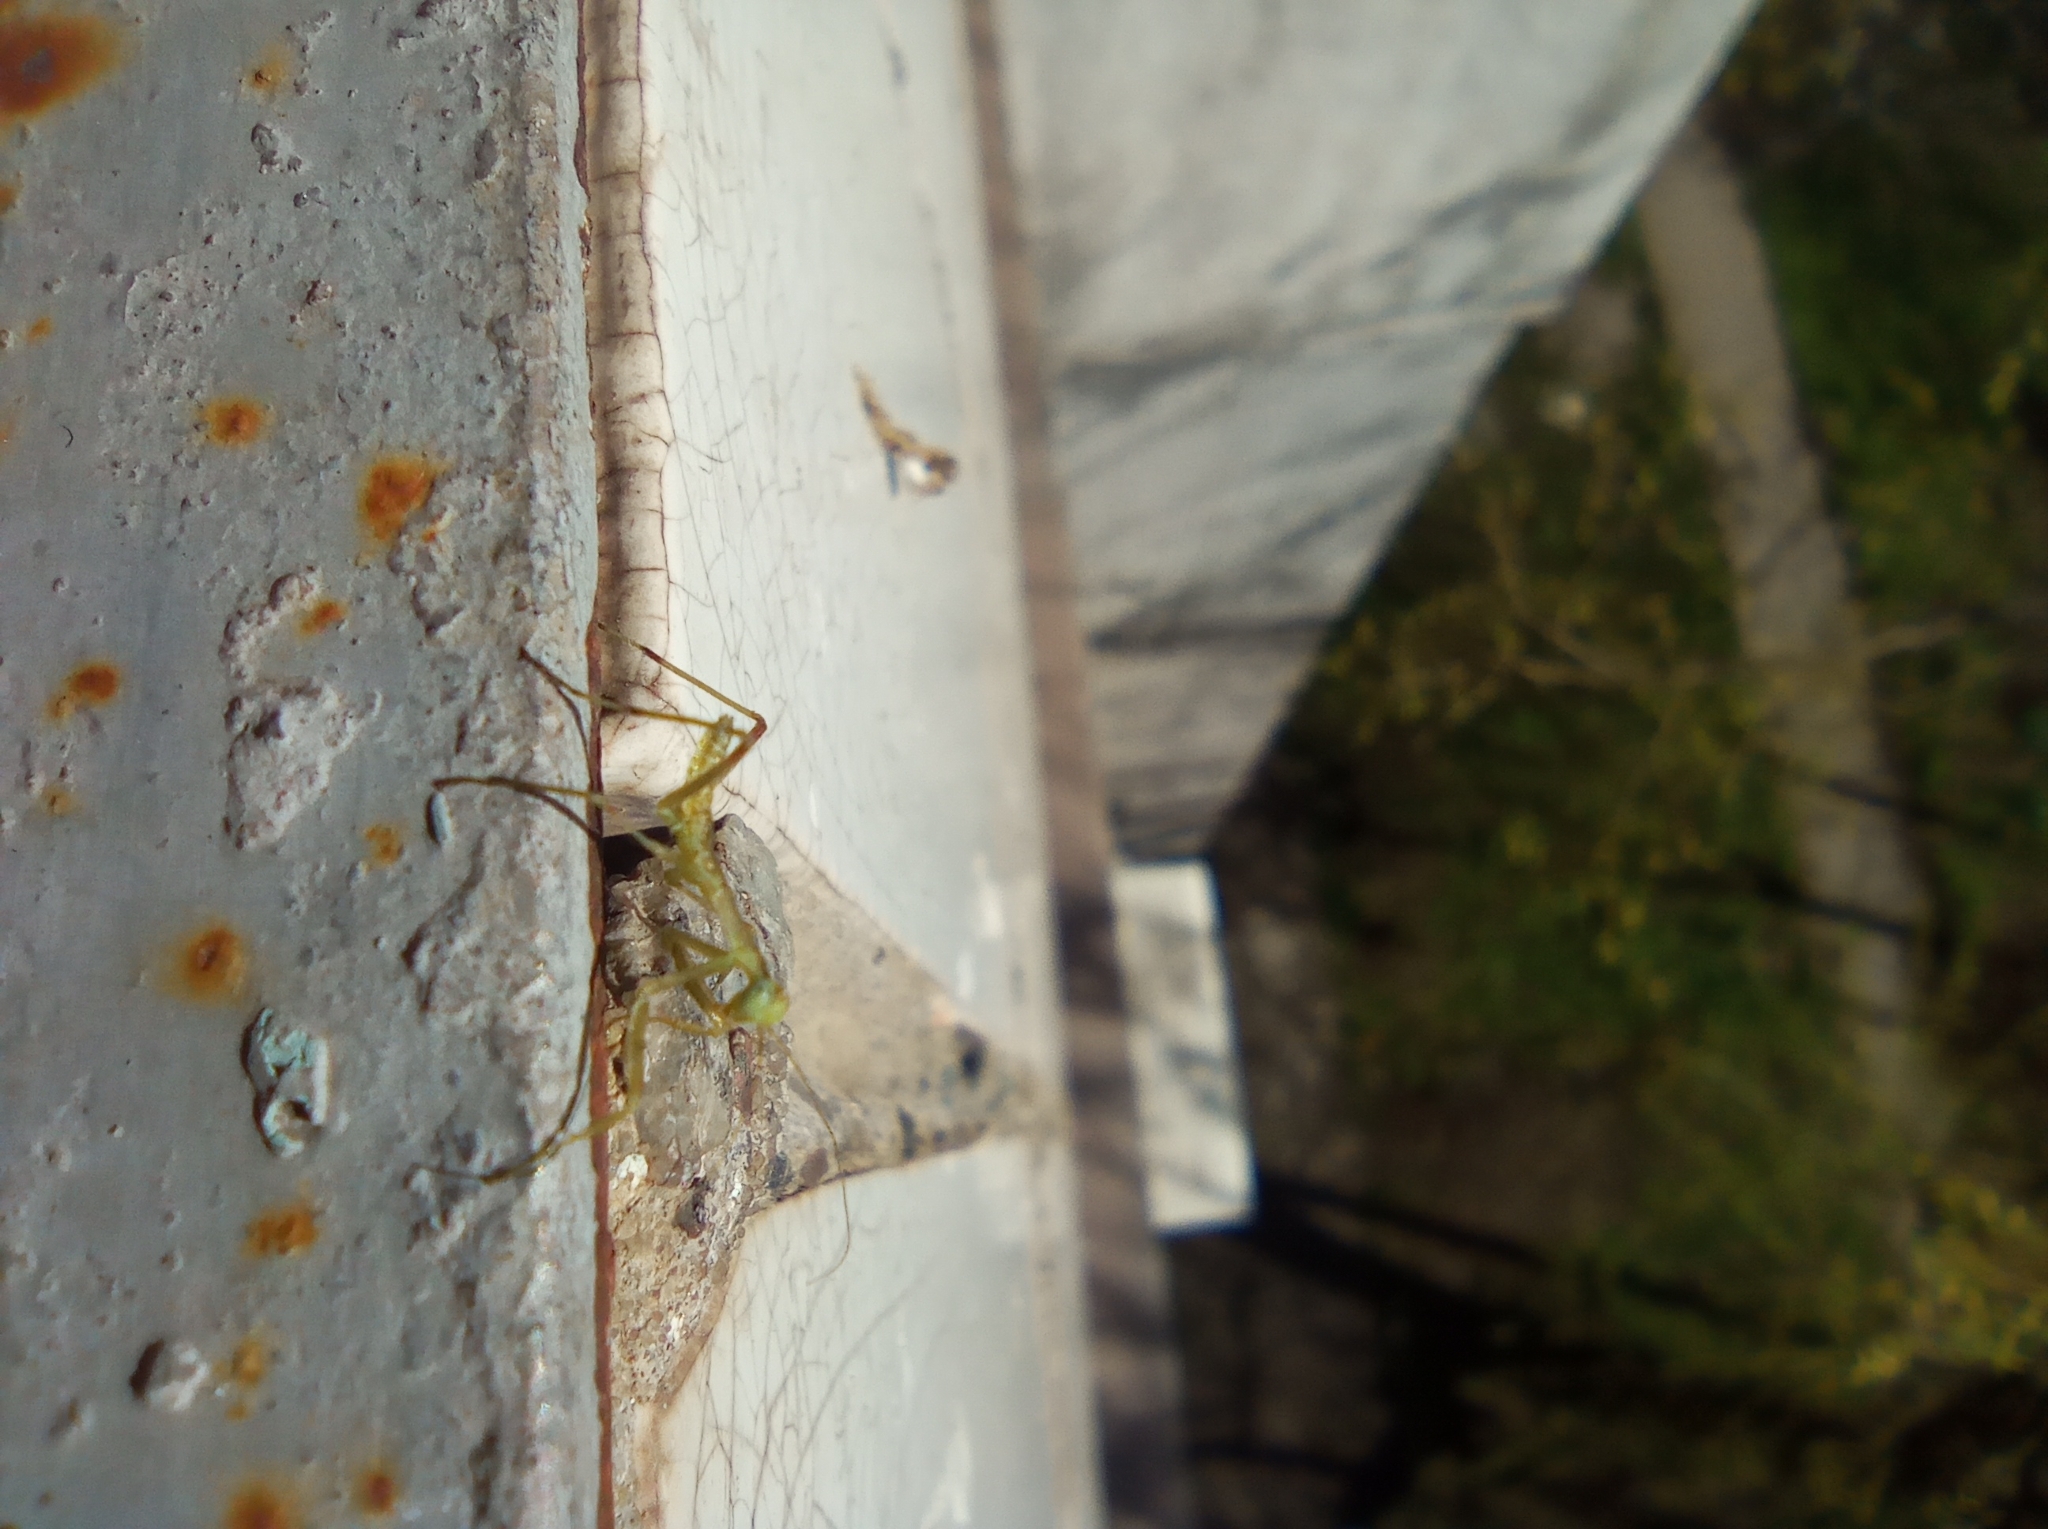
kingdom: Animalia
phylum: Arthropoda
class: Insecta
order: Mantodea
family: Mantidae
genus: Hierodula
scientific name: Hierodula transcaucasica
